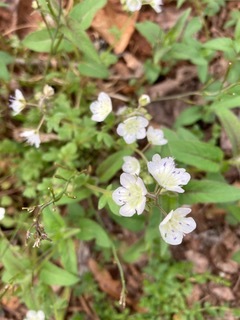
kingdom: Plantae
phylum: Tracheophyta
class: Magnoliopsida
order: Boraginales
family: Hydrophyllaceae
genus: Phacelia
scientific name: Phacelia dubia
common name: Appalachian phacelia
